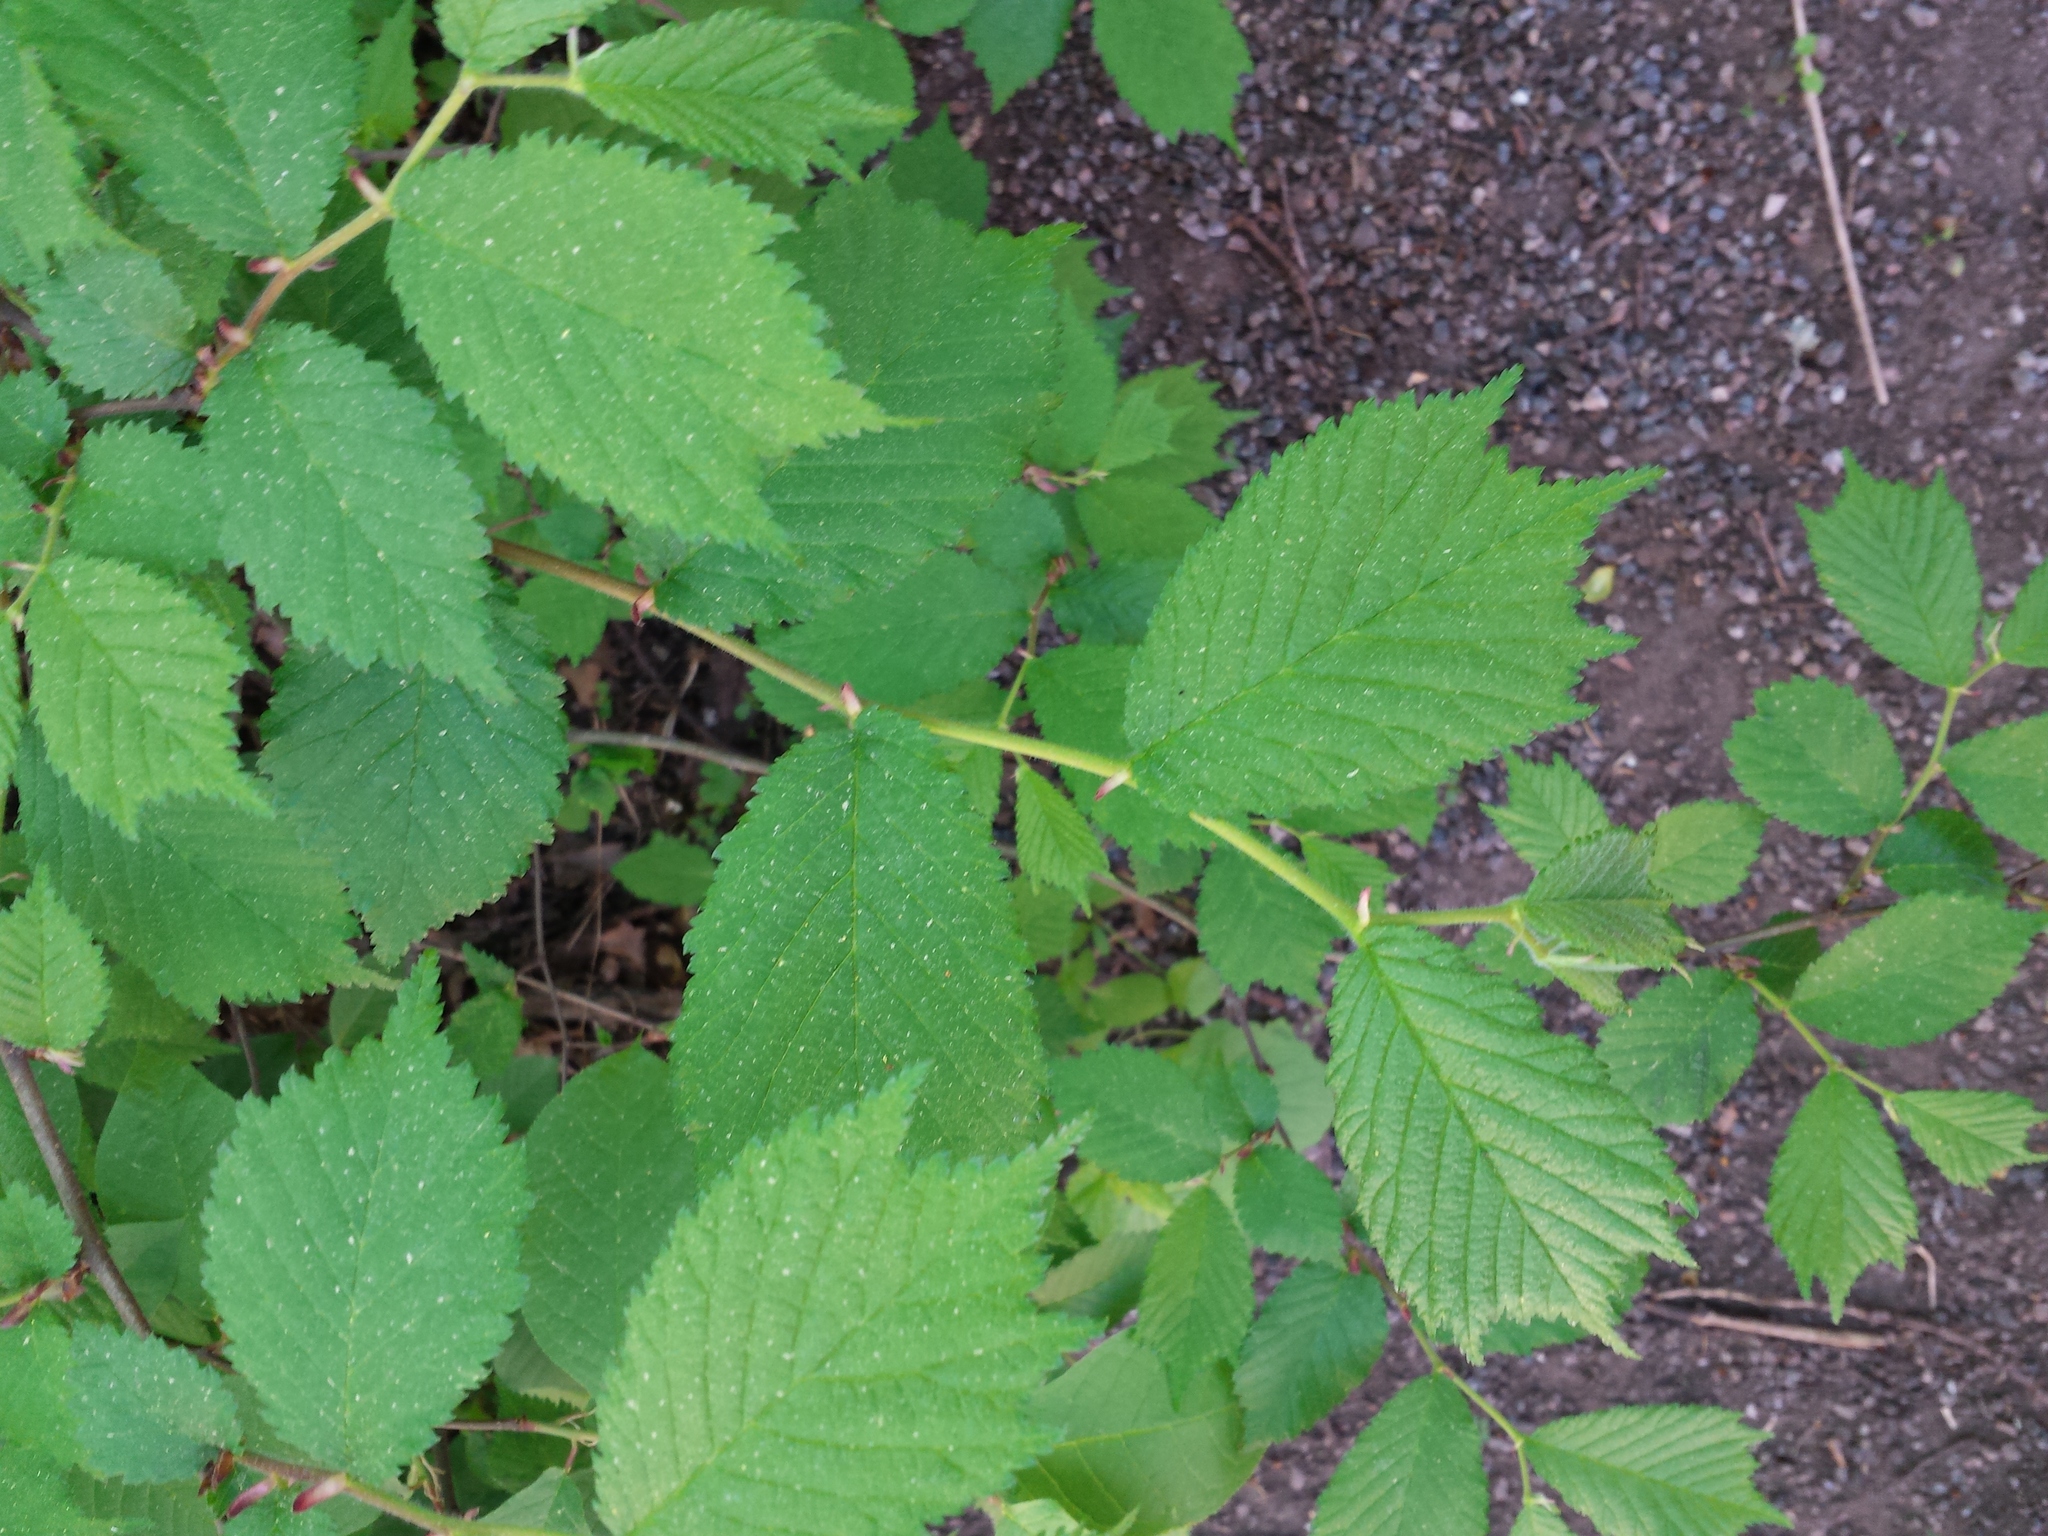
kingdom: Plantae
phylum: Tracheophyta
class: Magnoliopsida
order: Rosales
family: Ulmaceae
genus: Ulmus
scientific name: Ulmus glabra
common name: Wych elm
